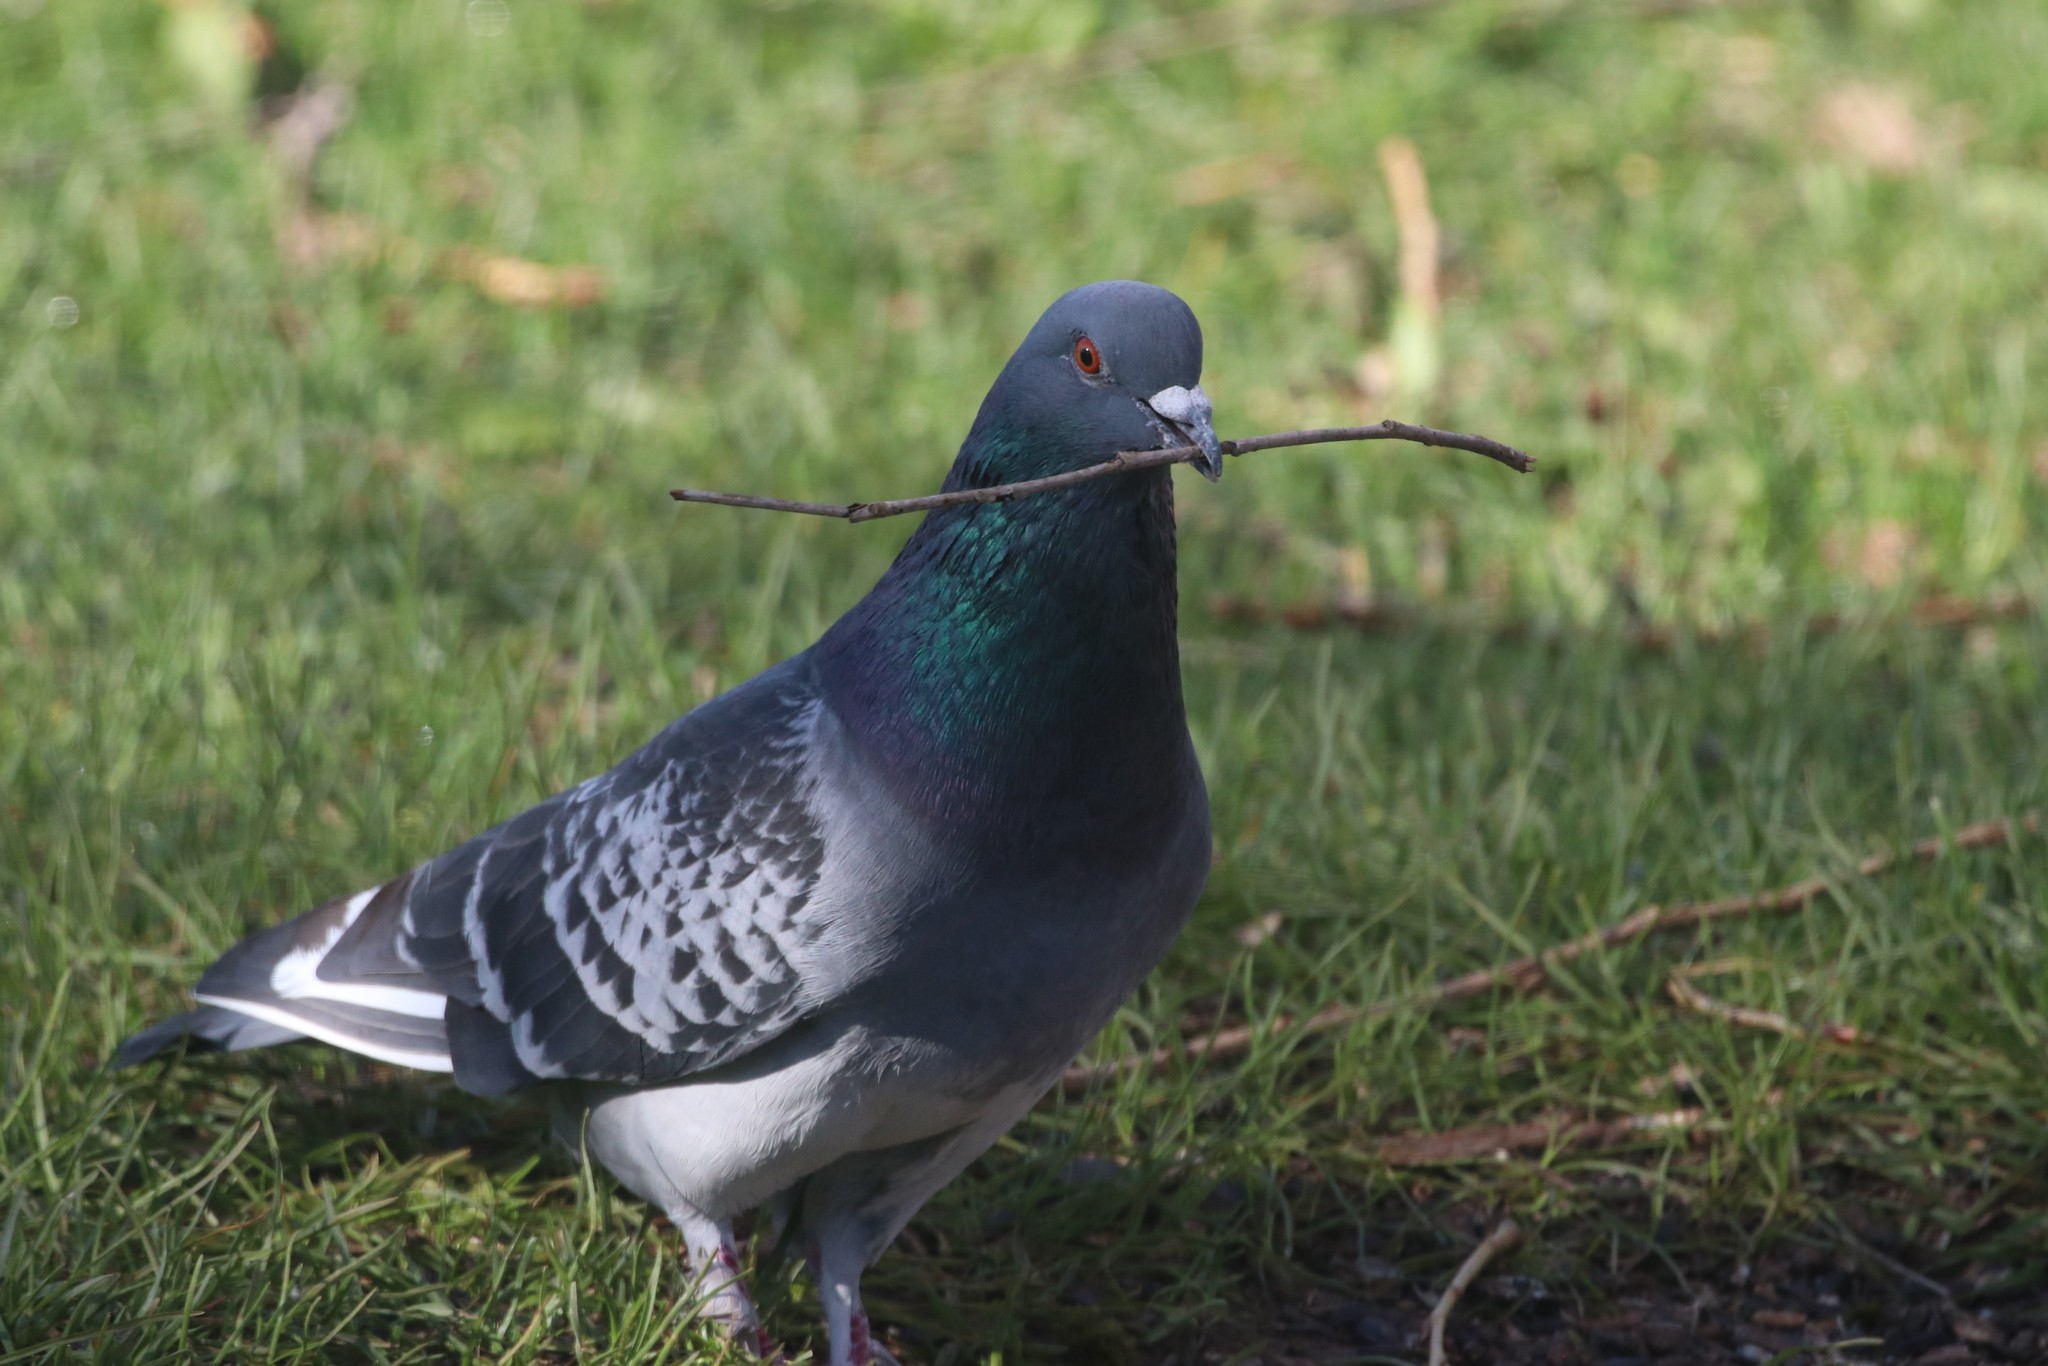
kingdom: Animalia
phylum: Chordata
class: Aves
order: Columbiformes
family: Columbidae
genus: Columba
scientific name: Columba livia
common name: Rock pigeon
